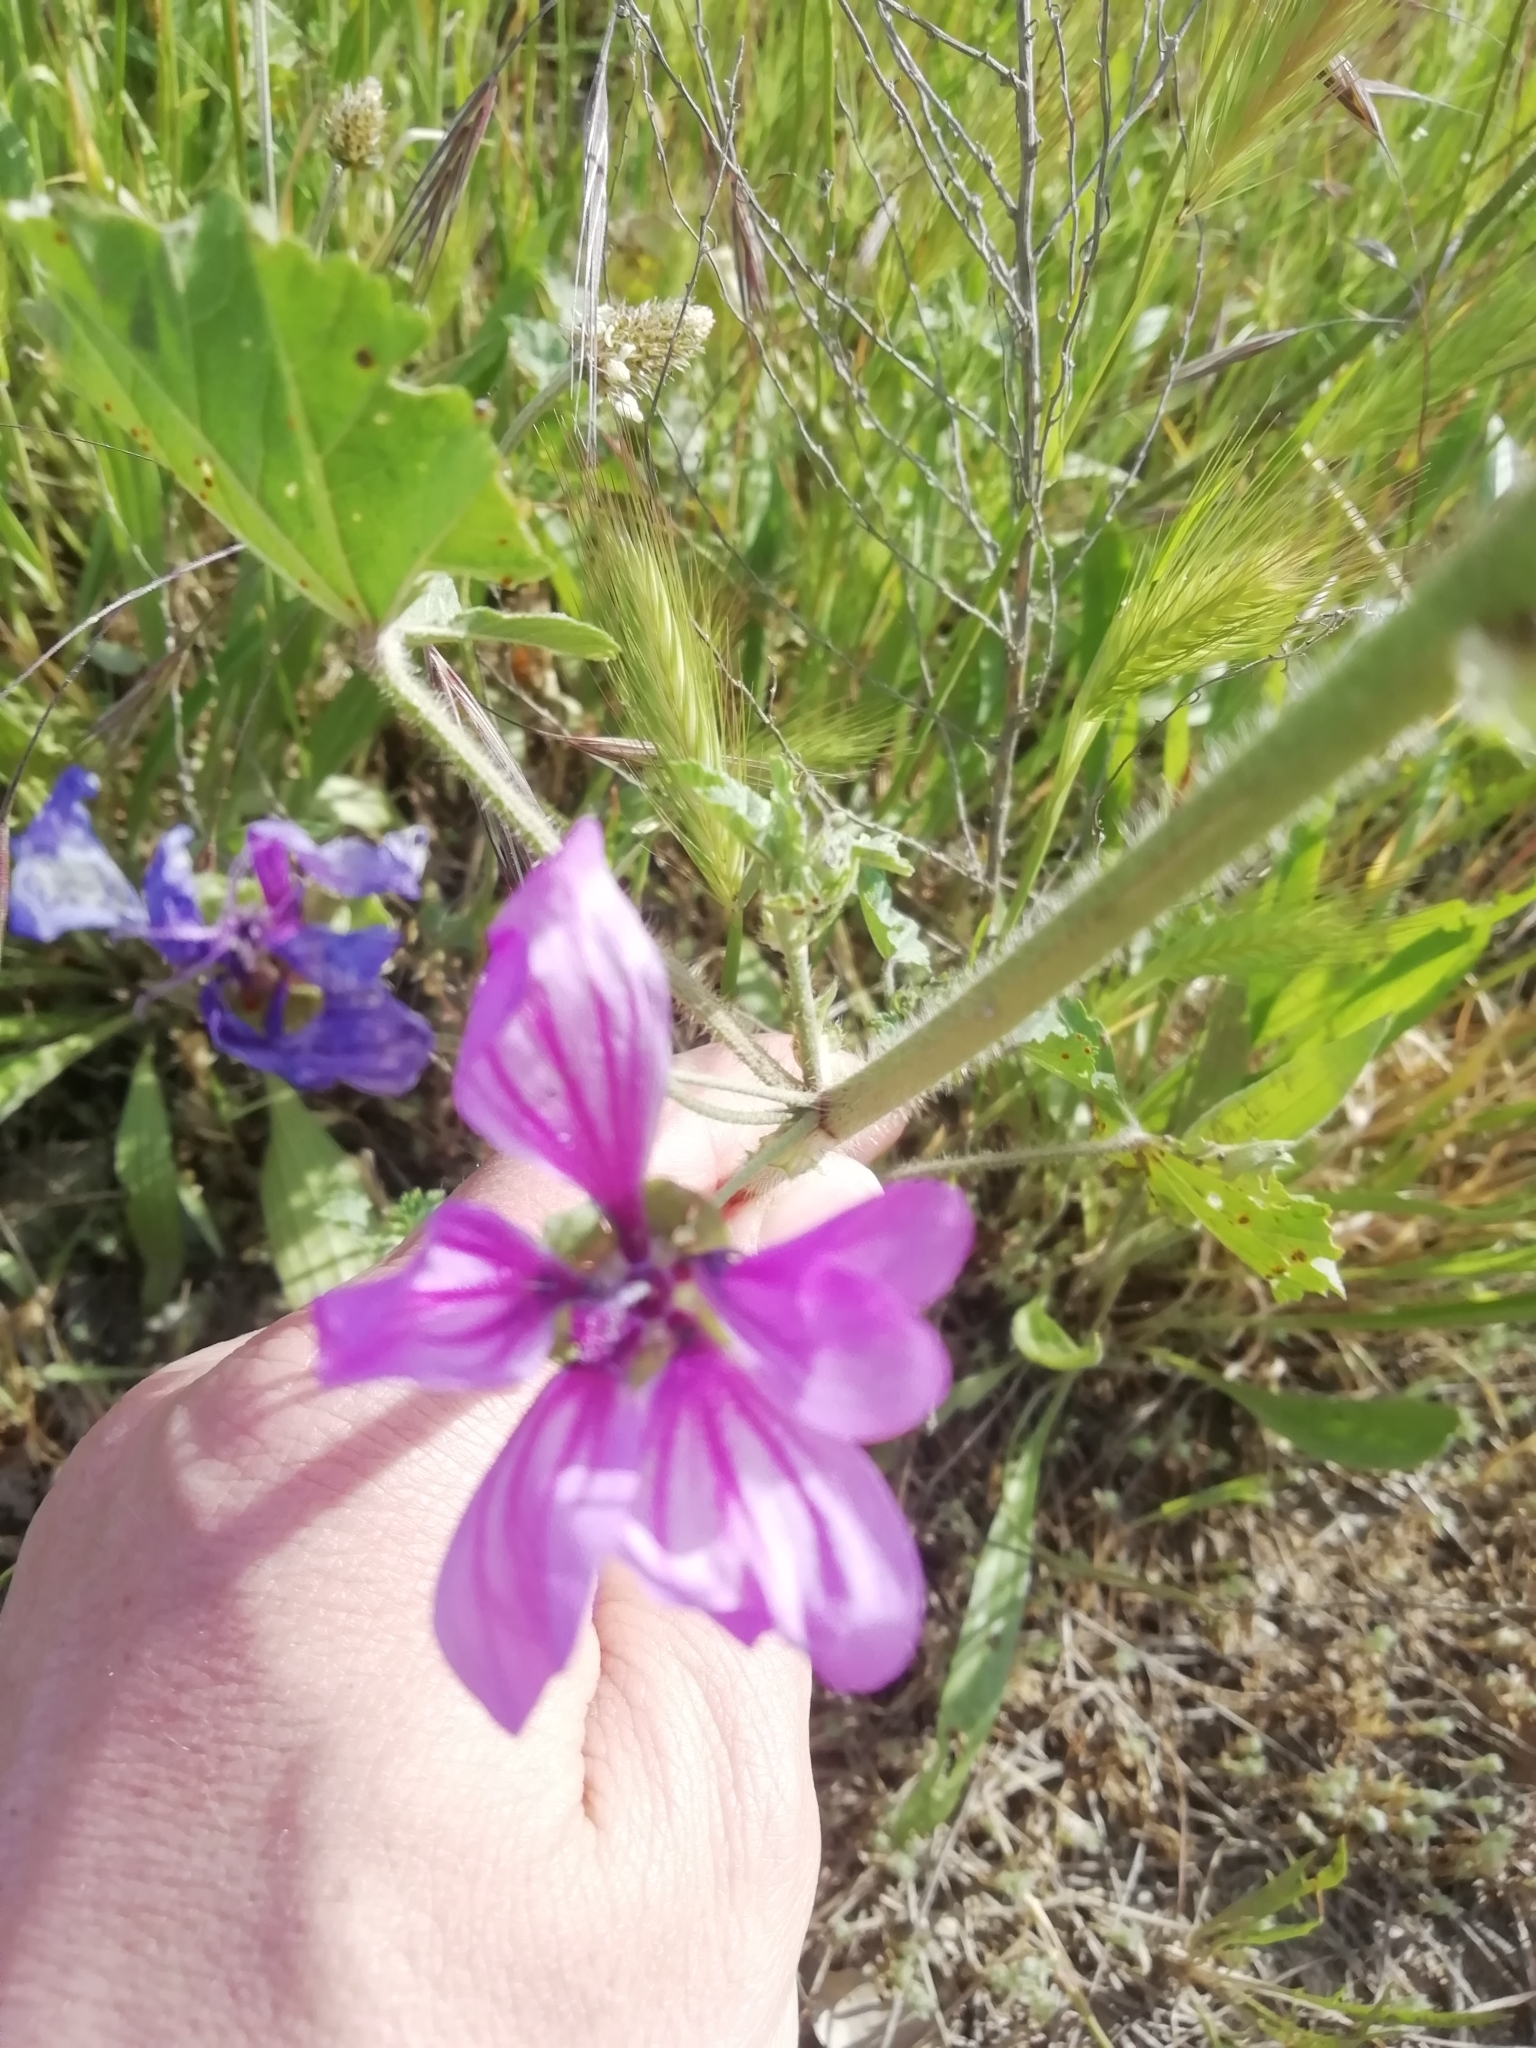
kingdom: Plantae
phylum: Tracheophyta
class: Magnoliopsida
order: Malvales
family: Malvaceae
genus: Malva
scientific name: Malva sylvestris
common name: Common mallow
